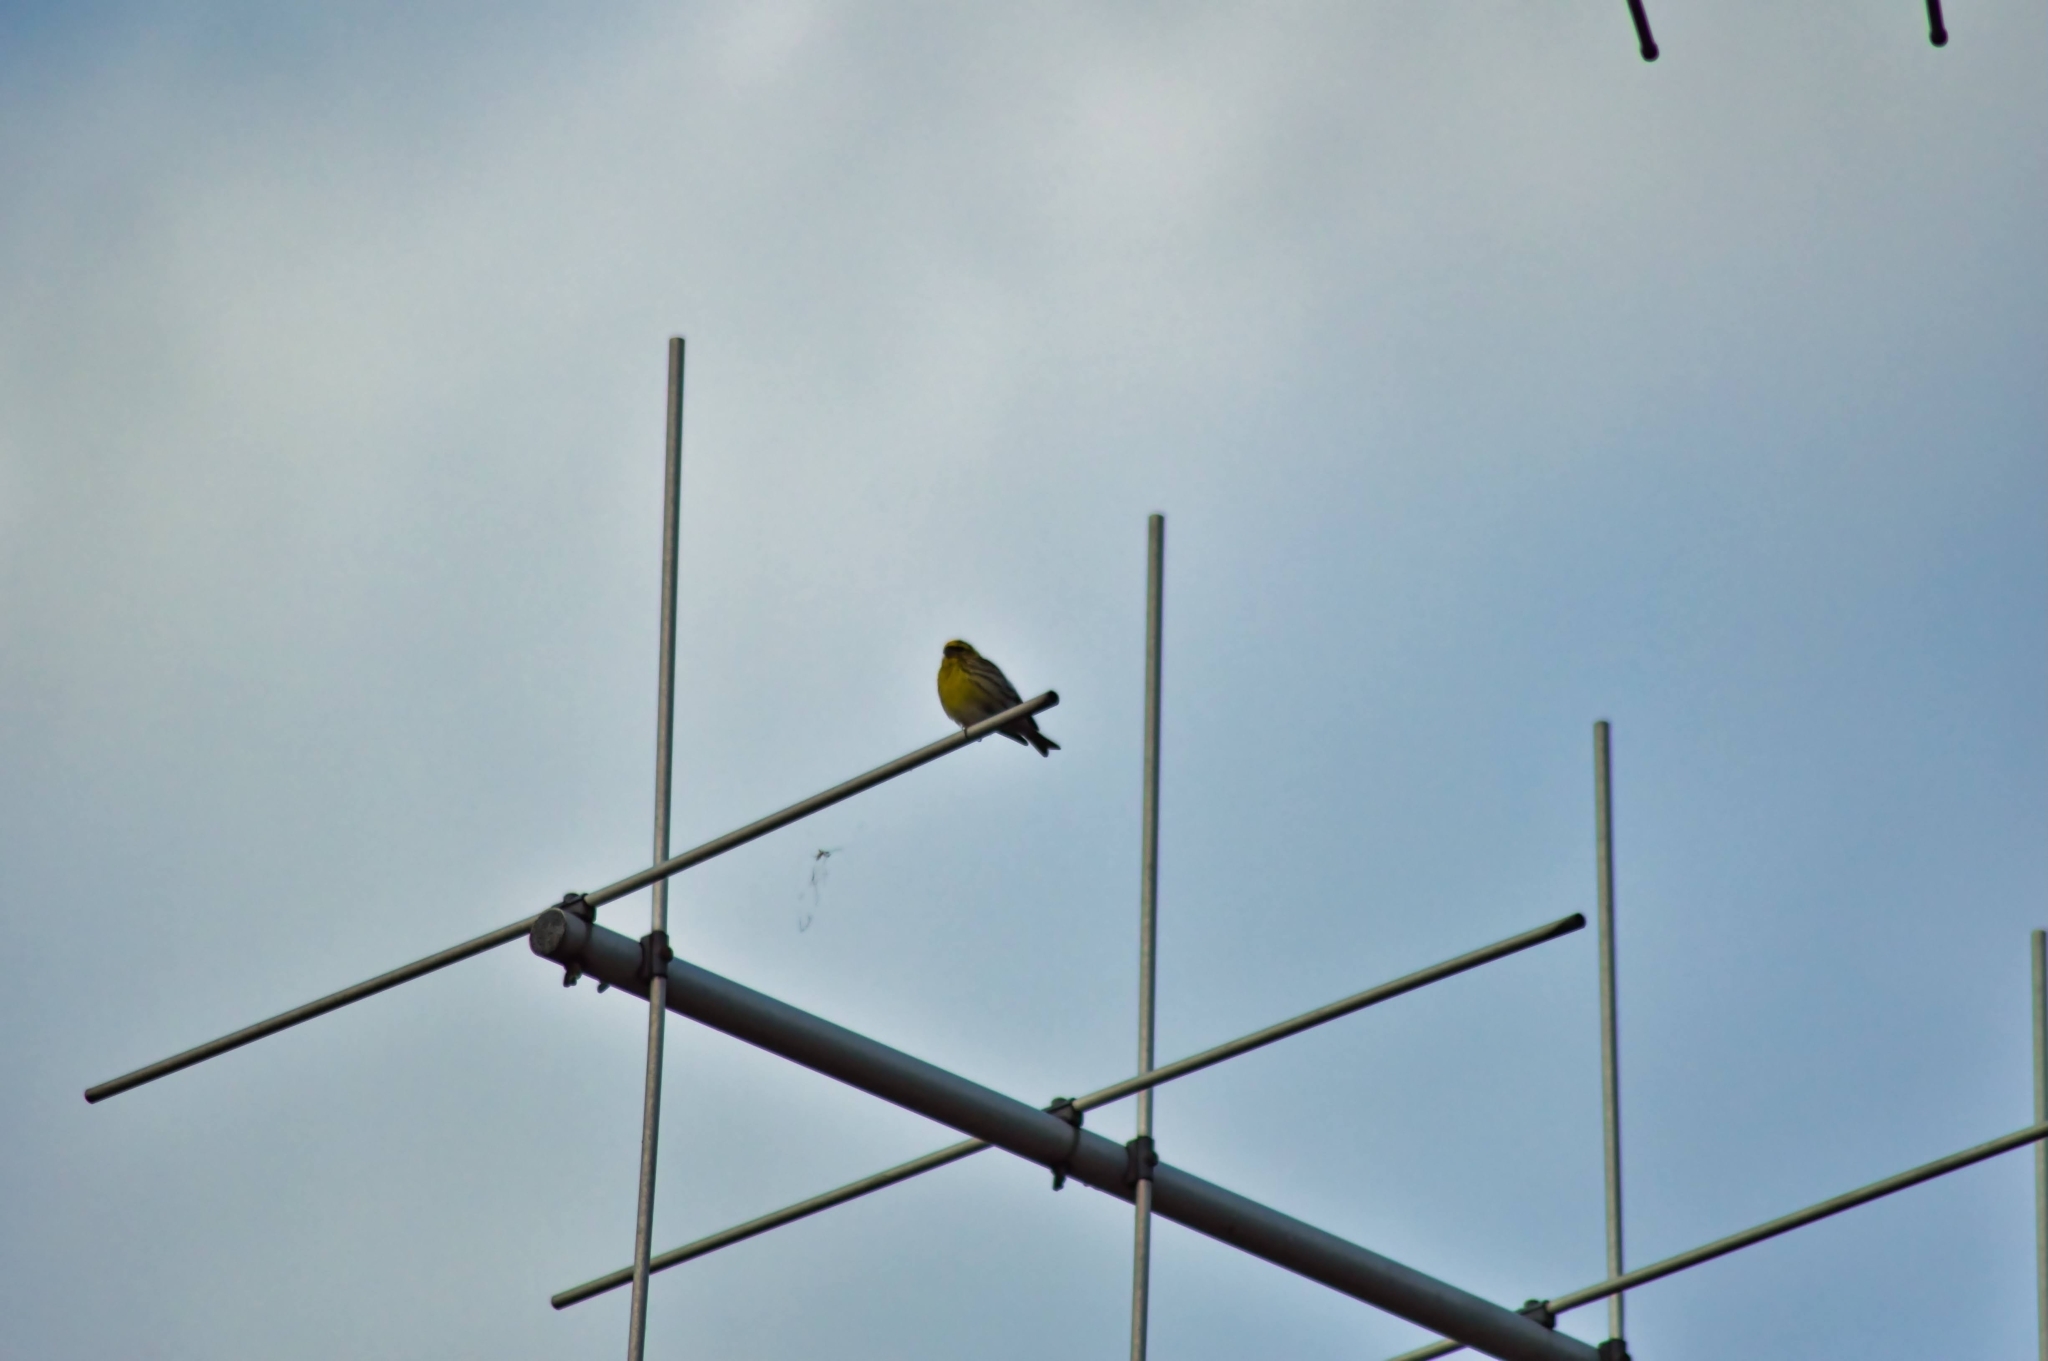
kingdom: Animalia
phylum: Chordata
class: Aves
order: Passeriformes
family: Fringillidae
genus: Serinus
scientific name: Serinus serinus
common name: European serin
